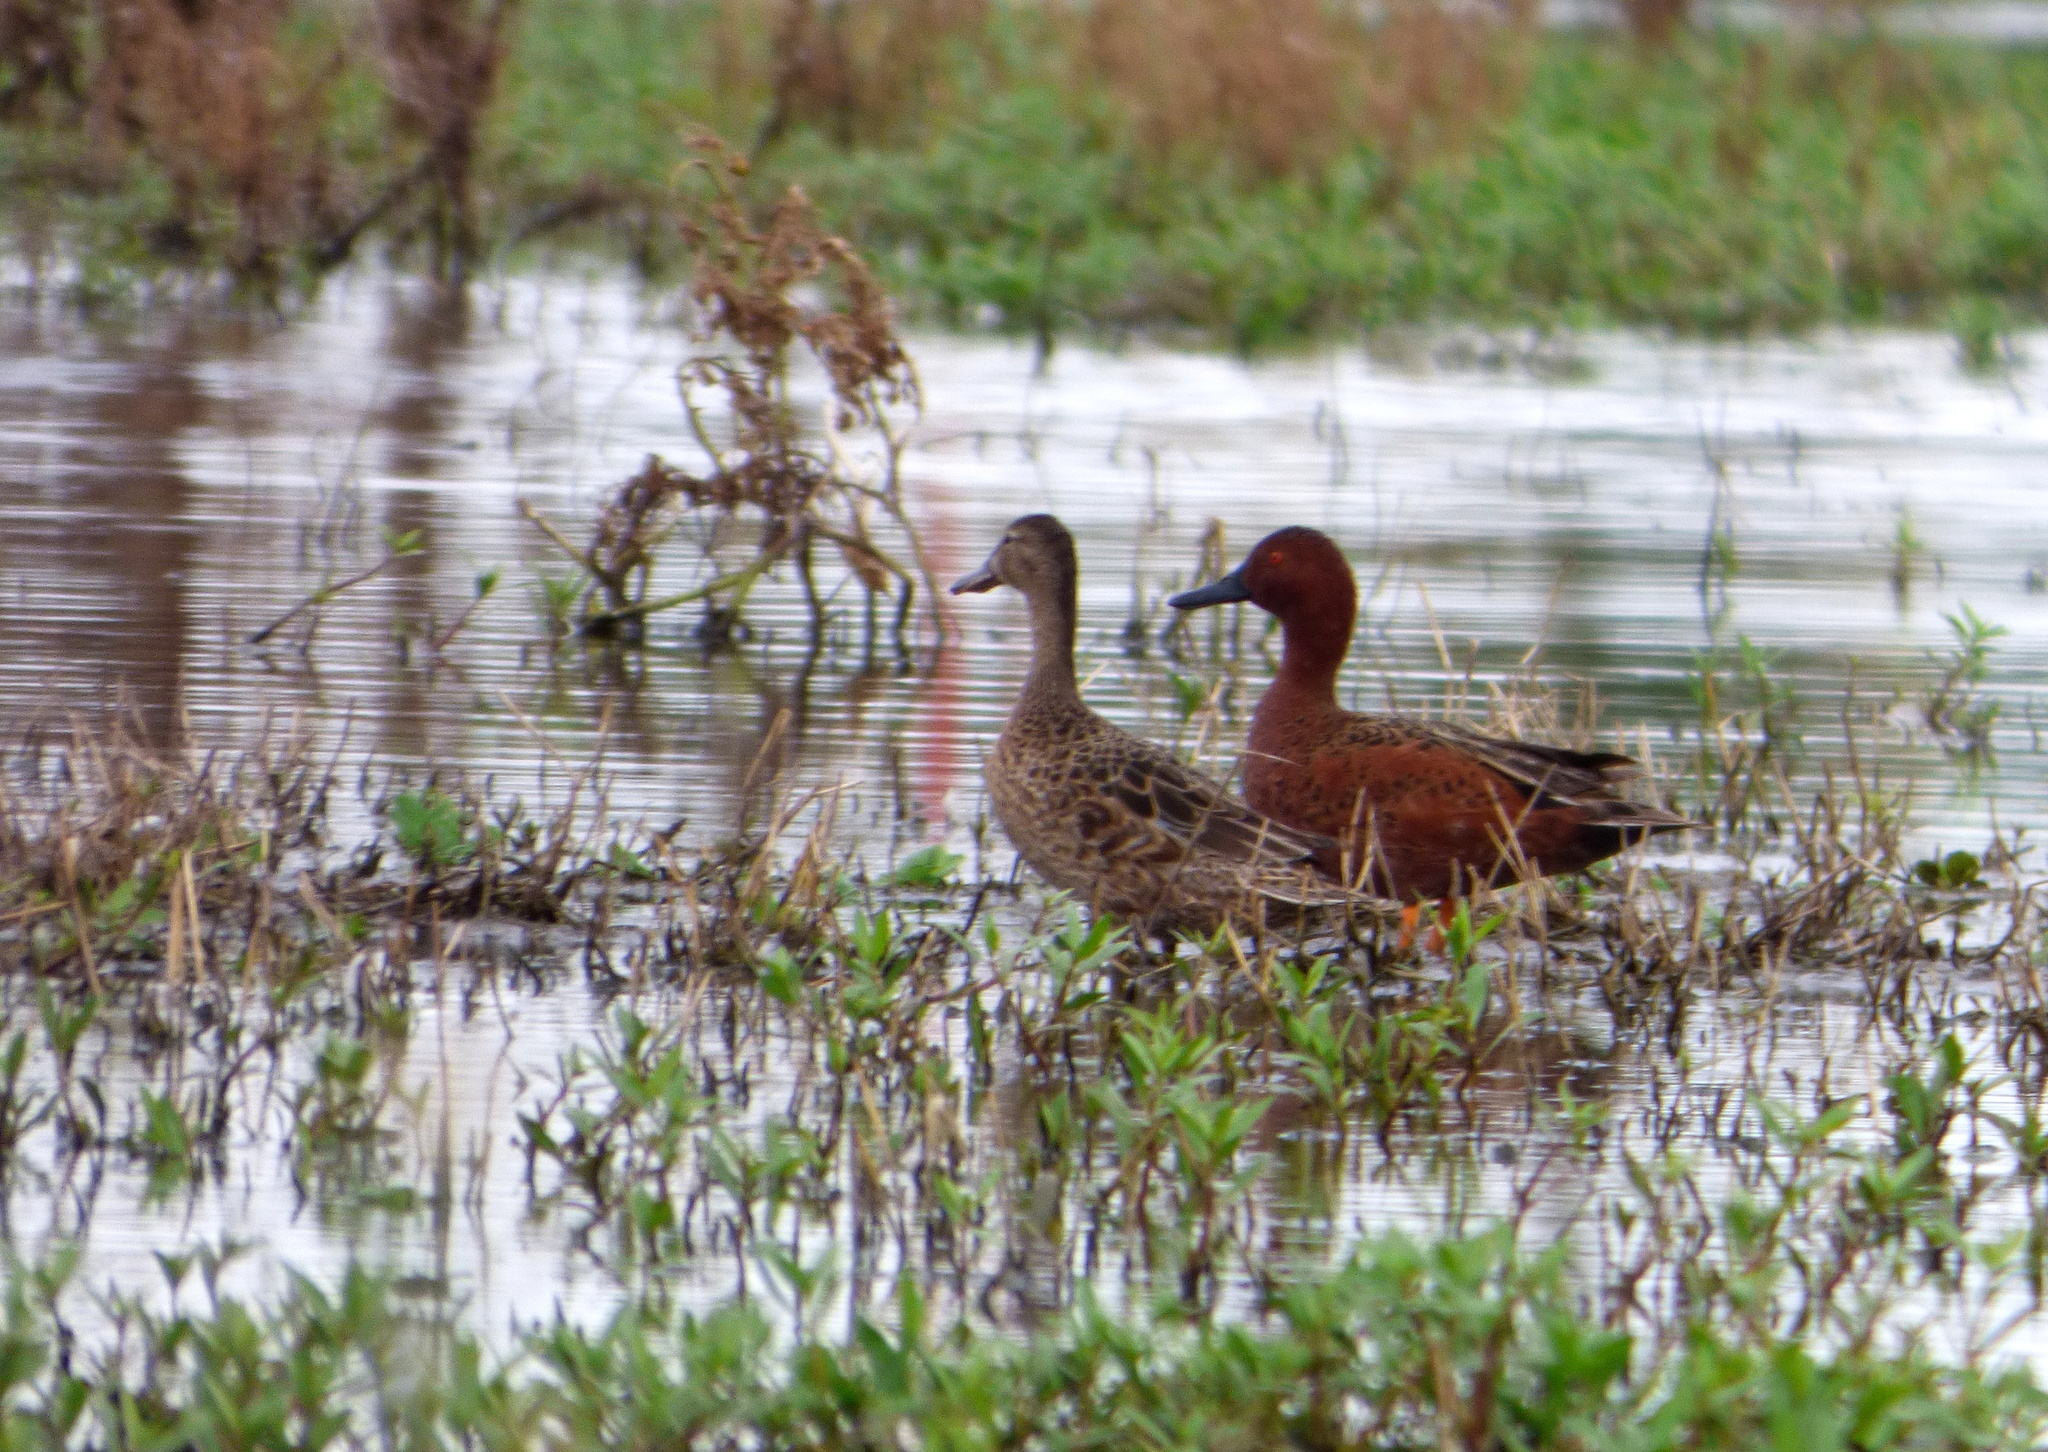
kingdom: Animalia
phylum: Chordata
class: Aves
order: Anseriformes
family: Anatidae
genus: Spatula
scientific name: Spatula cyanoptera
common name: Cinnamon teal
